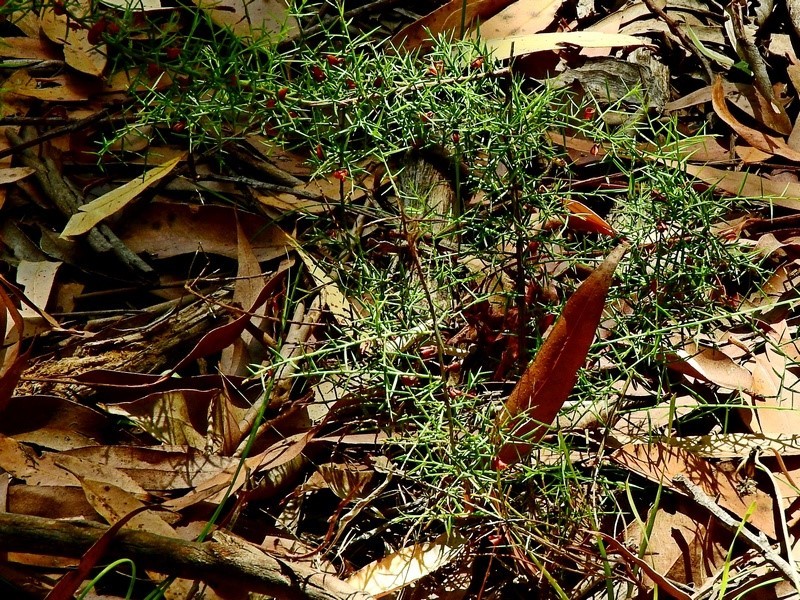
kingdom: Plantae
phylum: Tracheophyta
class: Magnoliopsida
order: Fabales
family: Fabaceae
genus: Daviesia
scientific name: Daviesia ulicifolia
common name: Gorse bitter-pea
